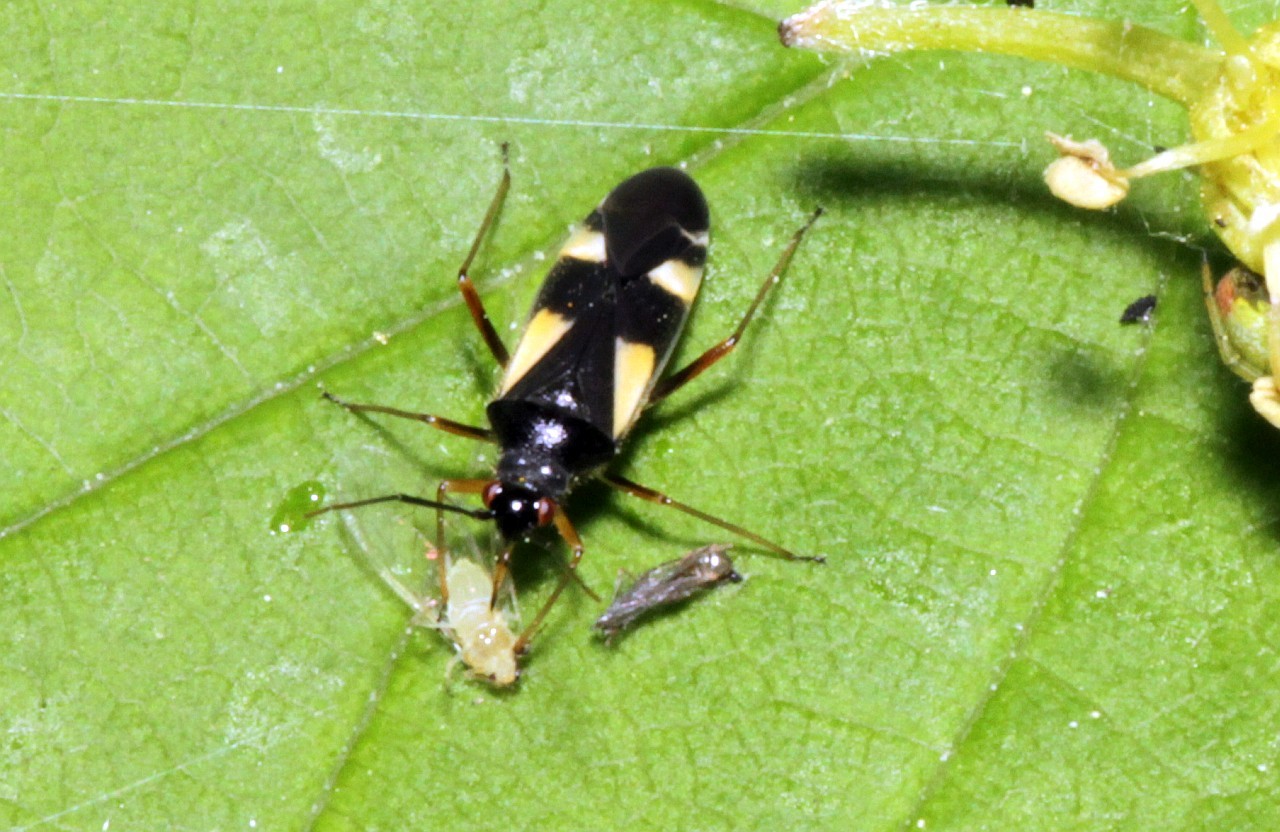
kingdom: Animalia
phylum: Arthropoda
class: Insecta
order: Hemiptera
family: Miridae
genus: Dryophilocoris
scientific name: Dryophilocoris flavoquadrimaculatus
